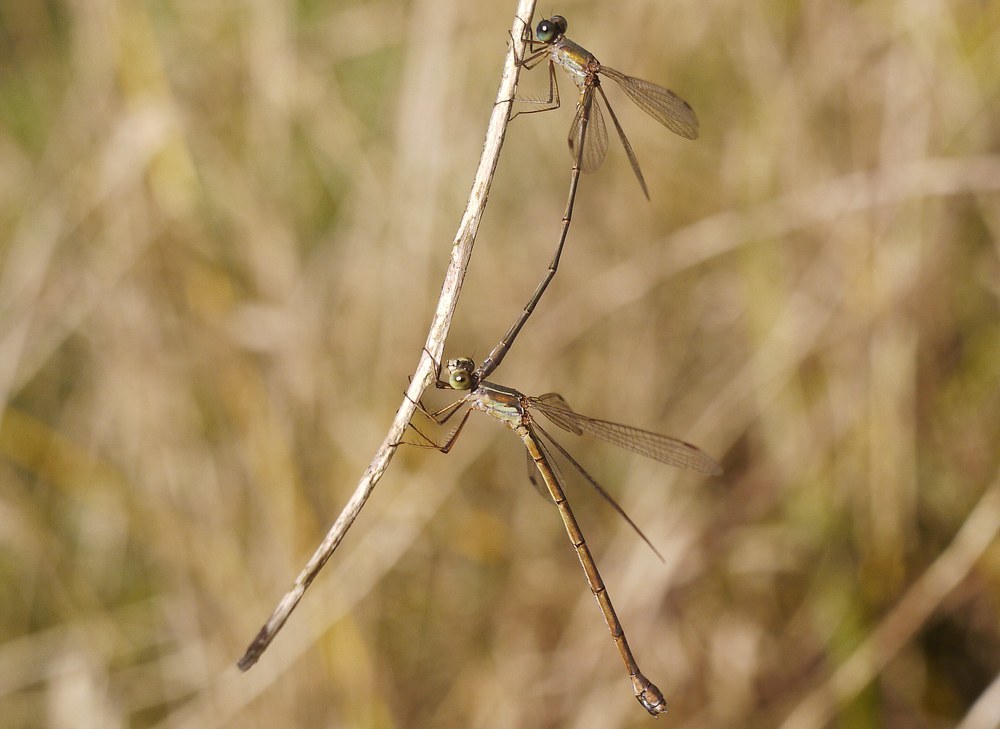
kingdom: Animalia
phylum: Arthropoda
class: Insecta
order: Odonata
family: Lestidae
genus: Chalcolestes
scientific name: Chalcolestes parvidens
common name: Eastern willow spreadwing
